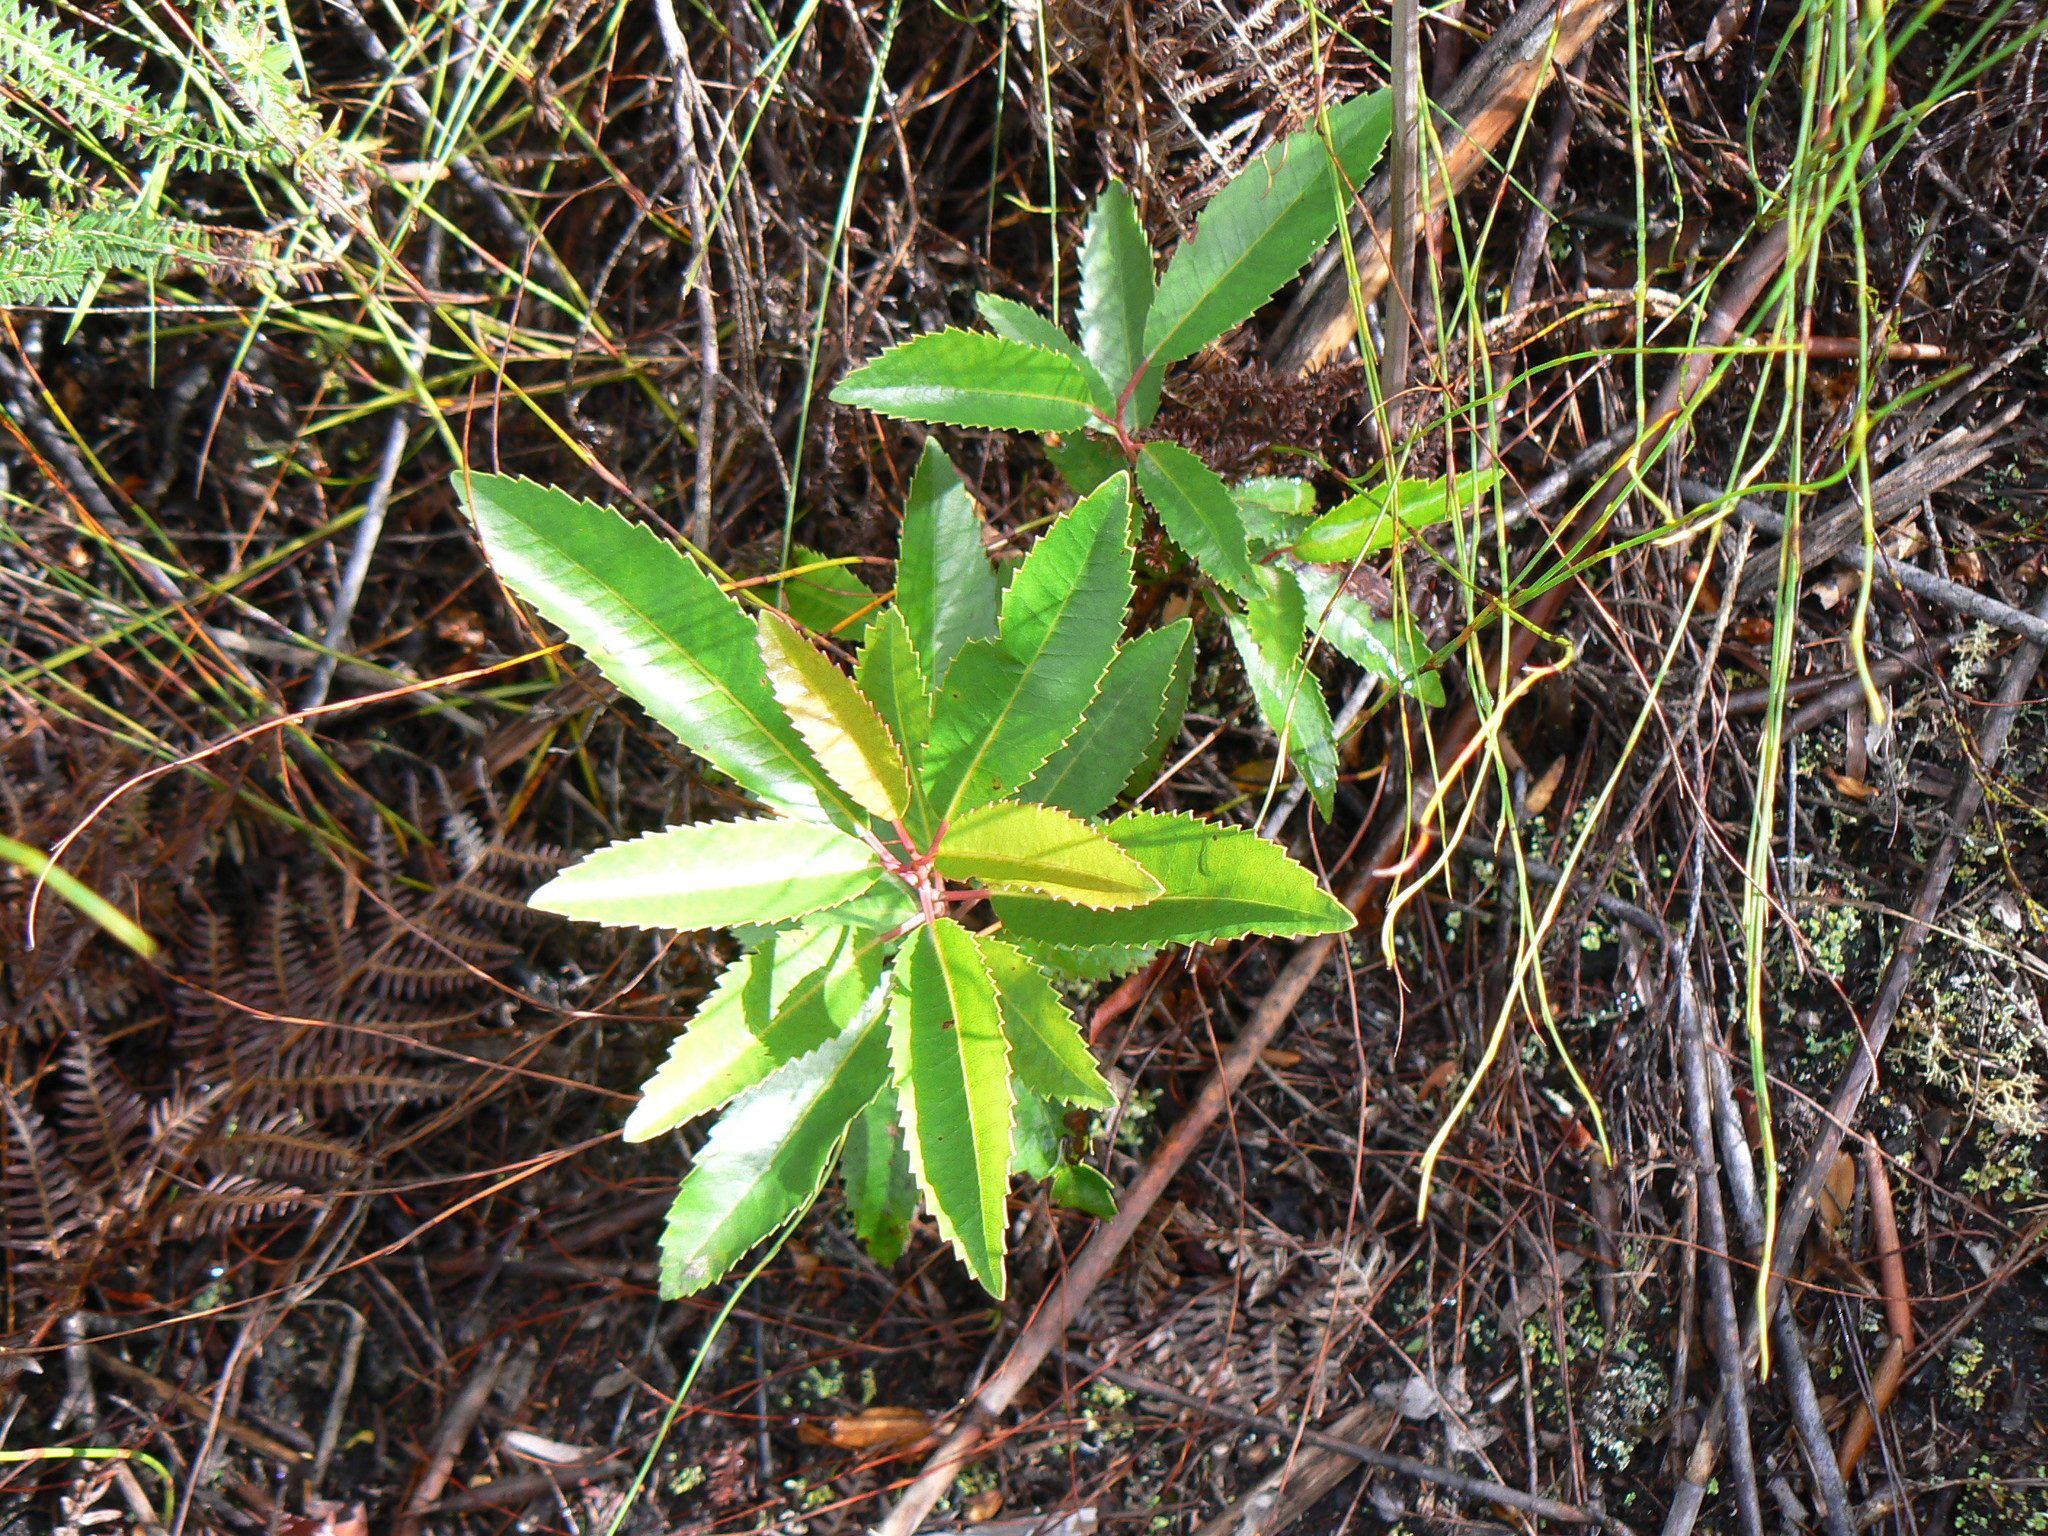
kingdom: Plantae
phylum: Tracheophyta
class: Magnoliopsida
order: Sapindales
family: Anacardiaceae
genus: Laurophyllus
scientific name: Laurophyllus capensis
